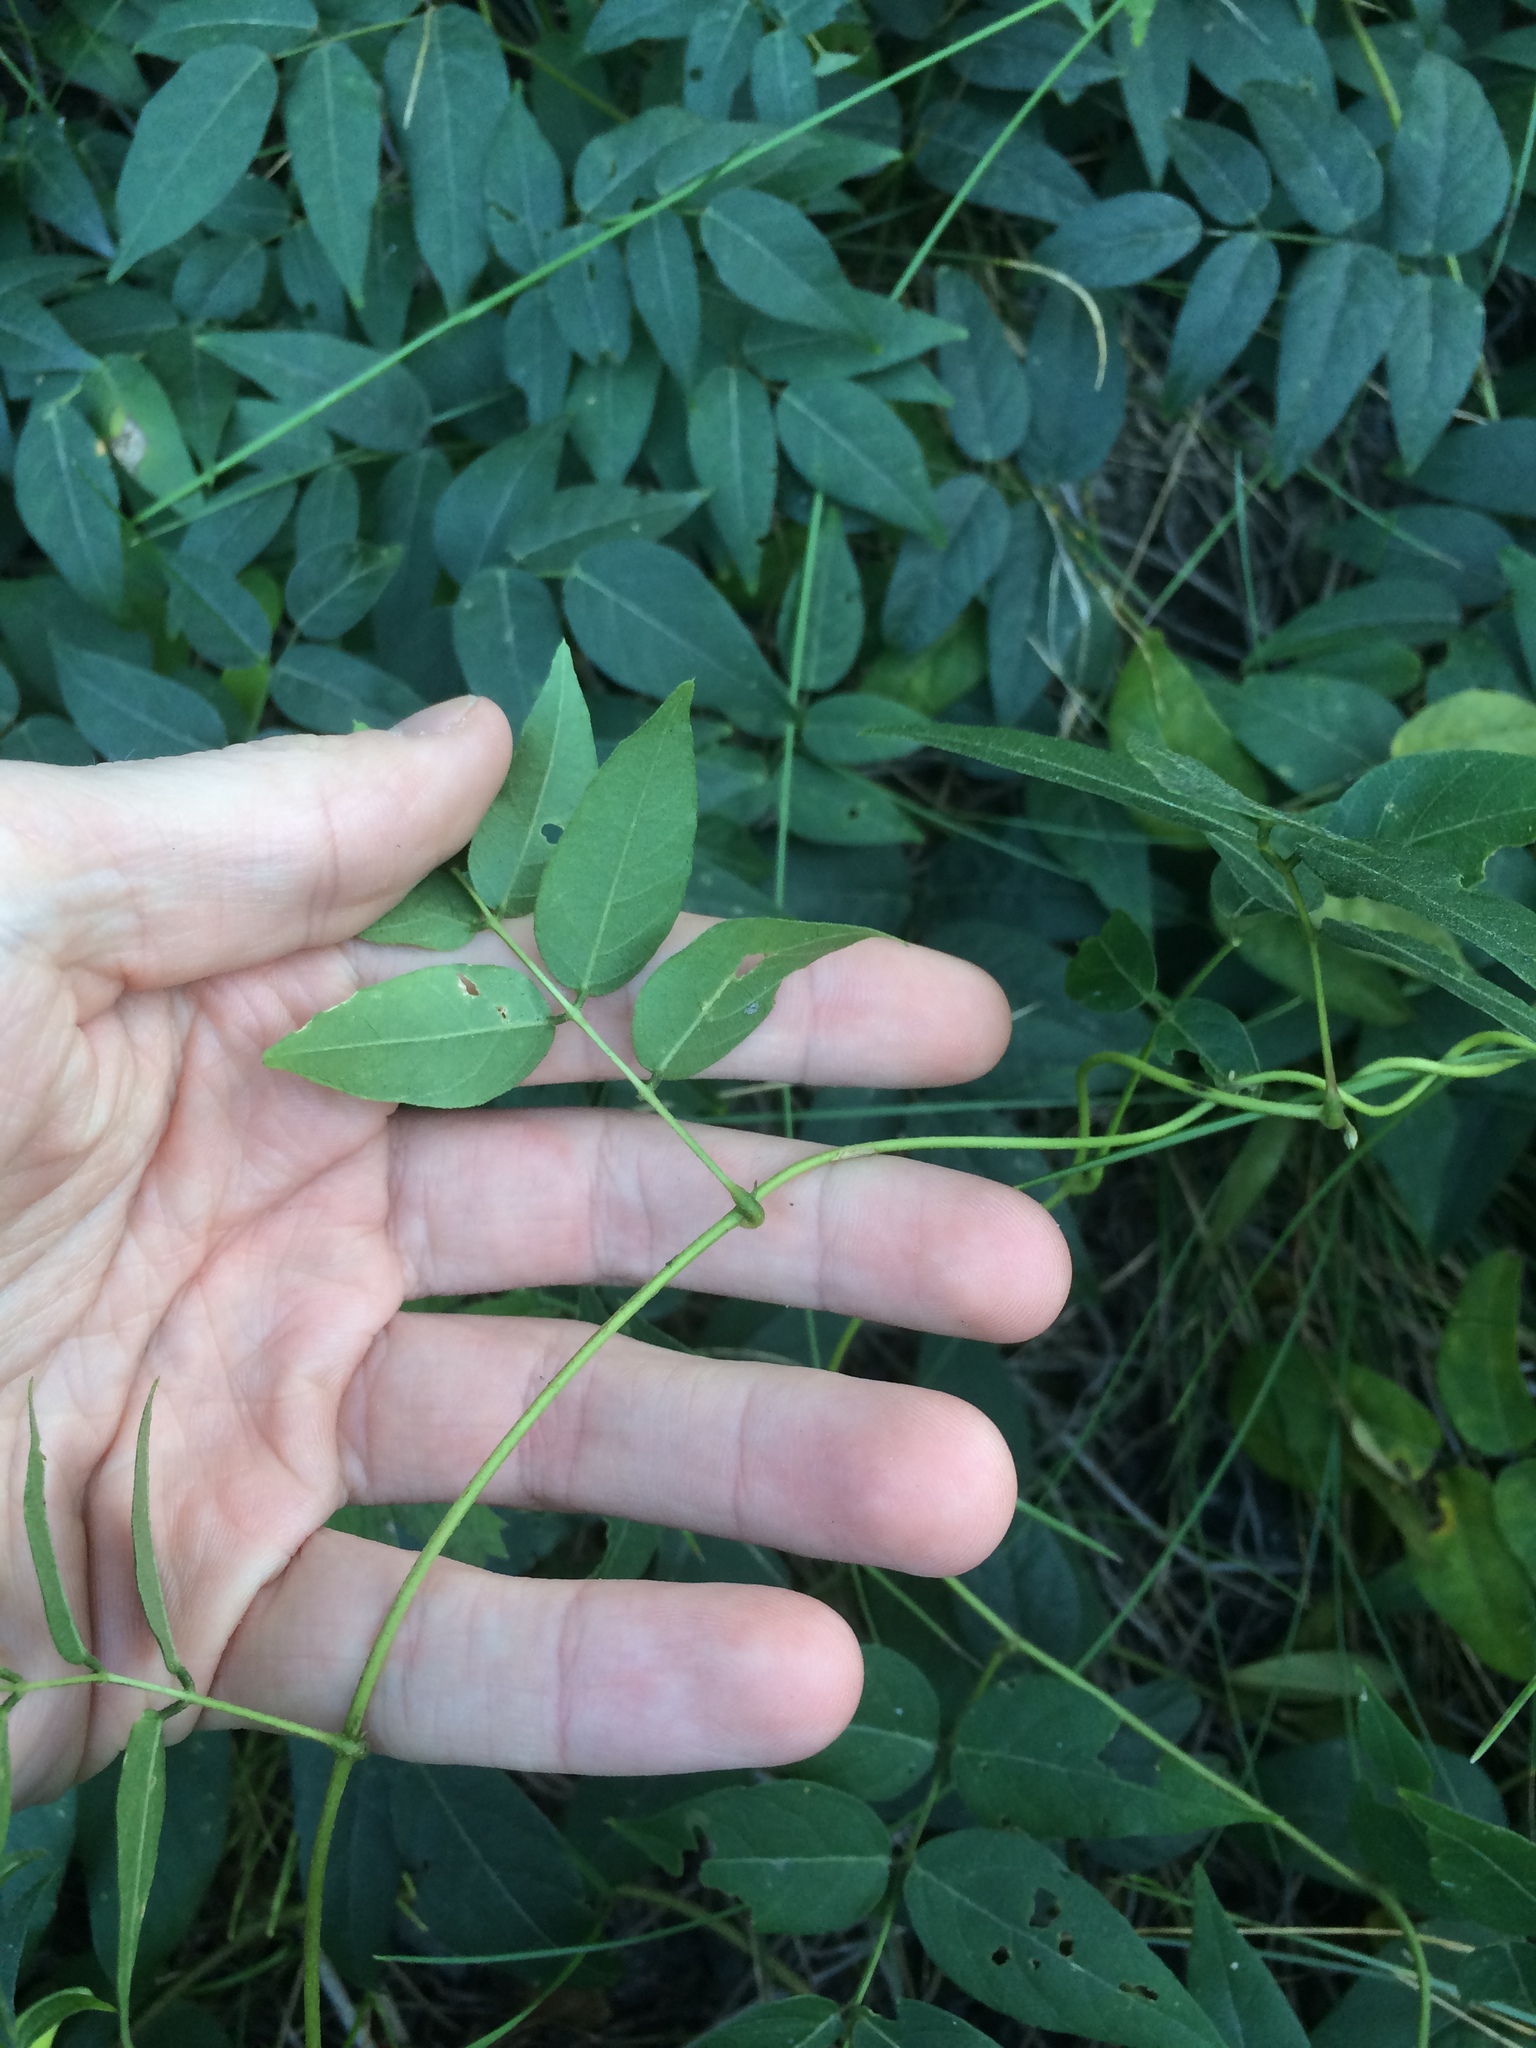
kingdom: Plantae
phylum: Tracheophyta
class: Magnoliopsida
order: Fabales
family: Fabaceae
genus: Apios
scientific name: Apios americana
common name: American potato-bean
